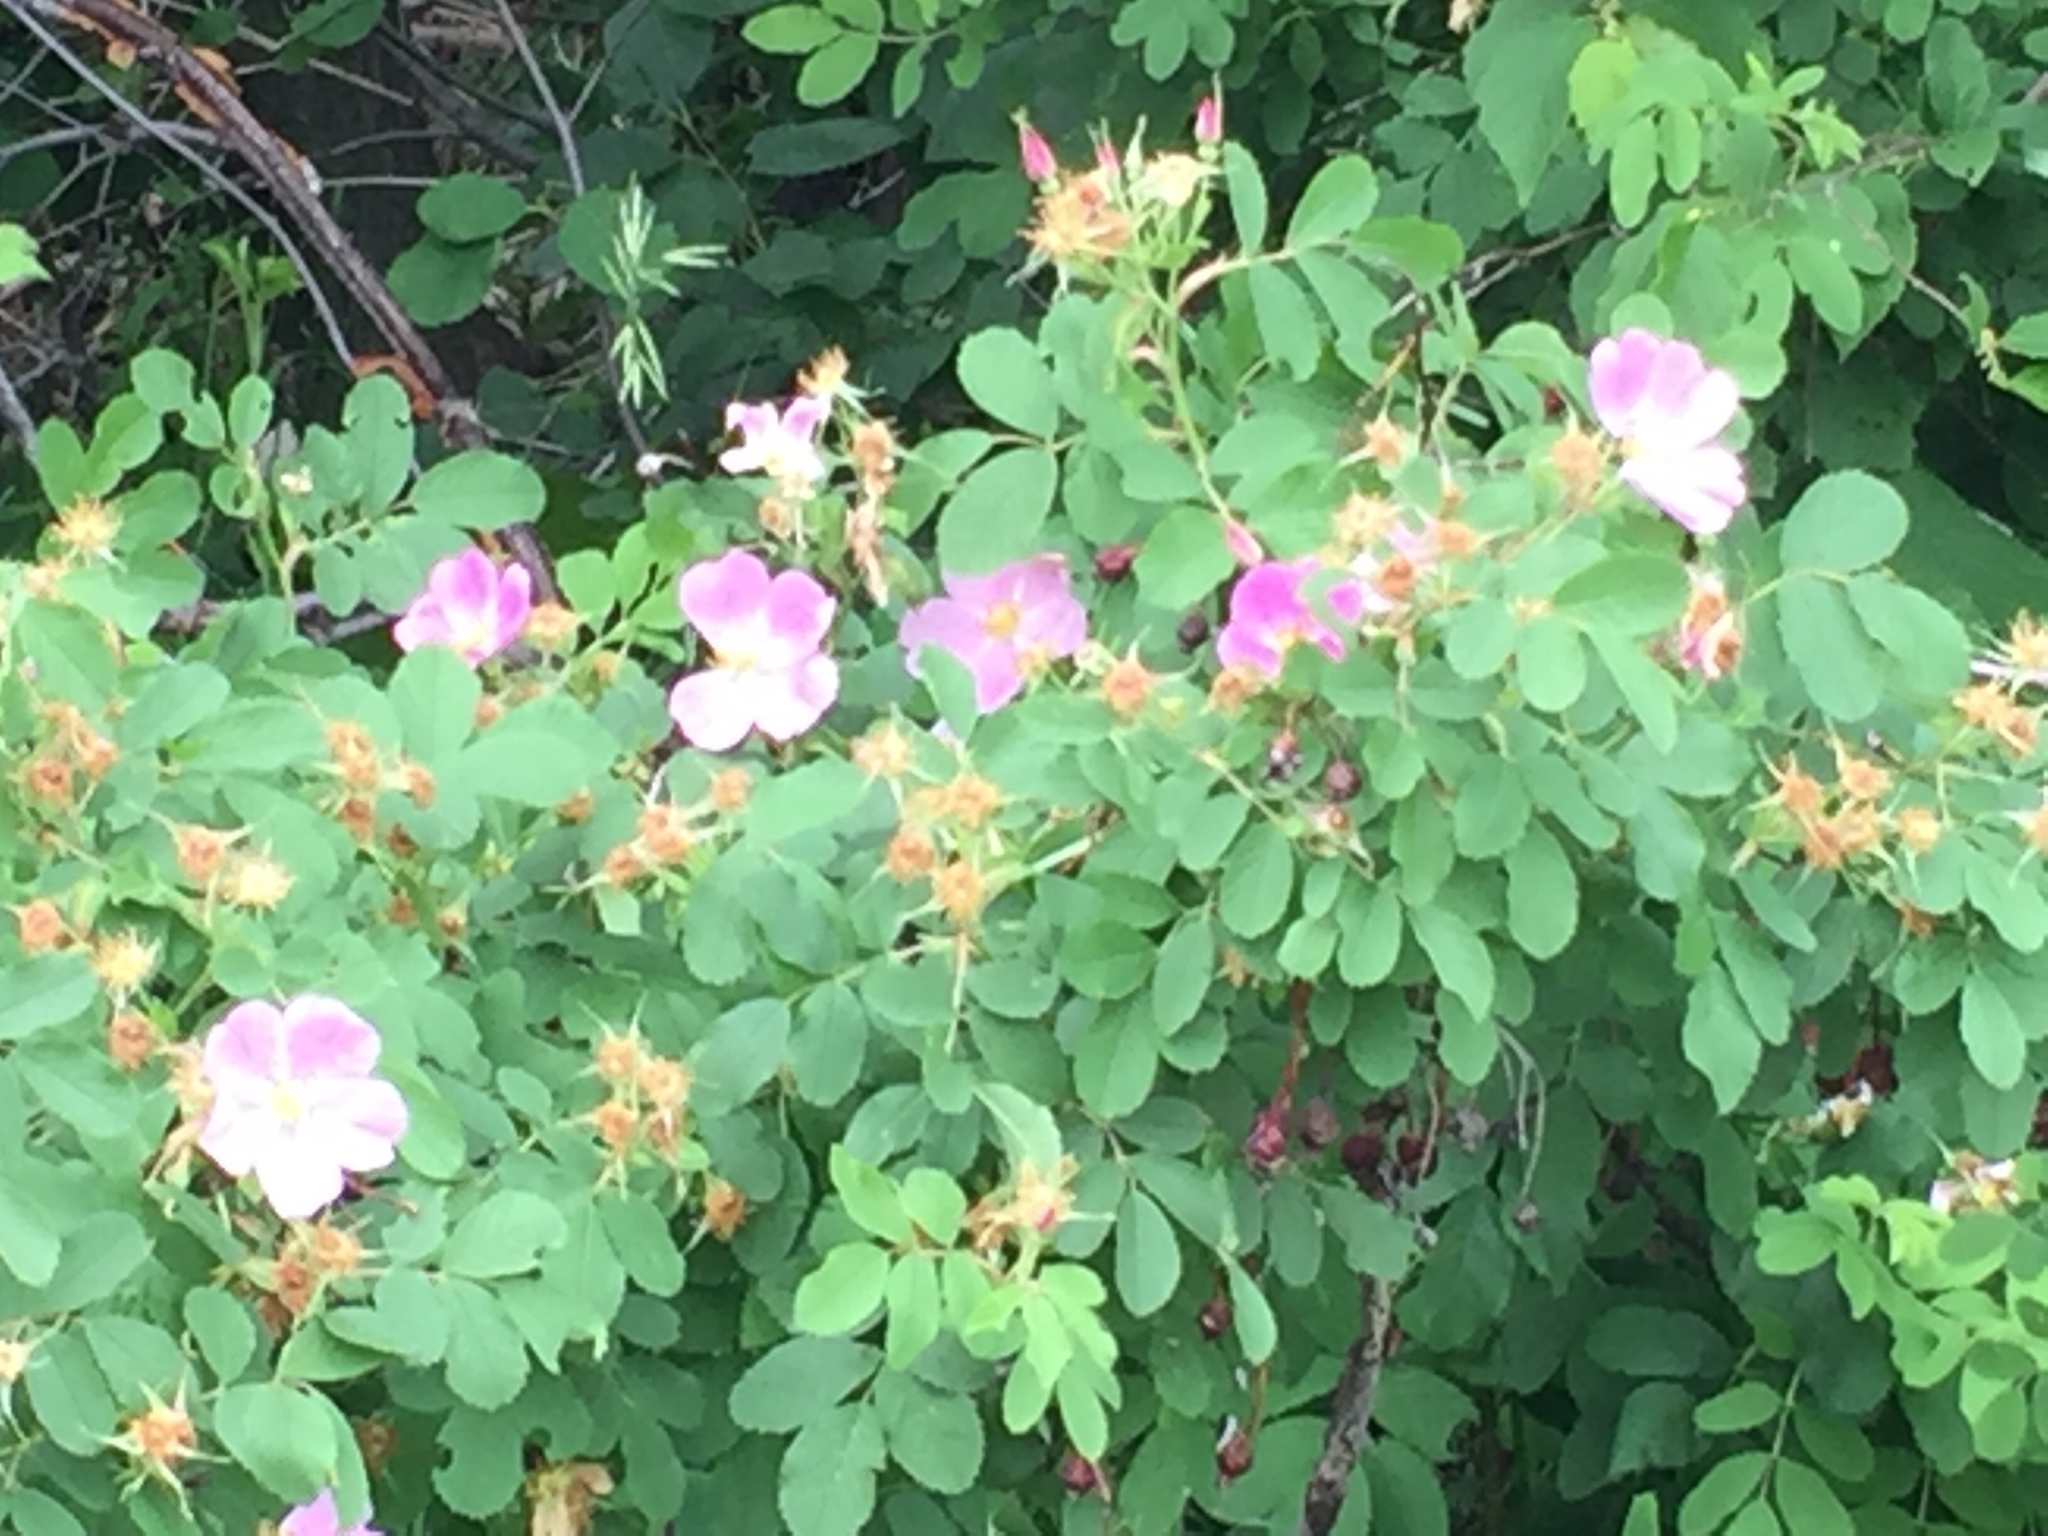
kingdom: Plantae
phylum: Tracheophyta
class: Magnoliopsida
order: Rosales
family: Rosaceae
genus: Rosa
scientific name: Rosa acicularis
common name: Prickly rose
